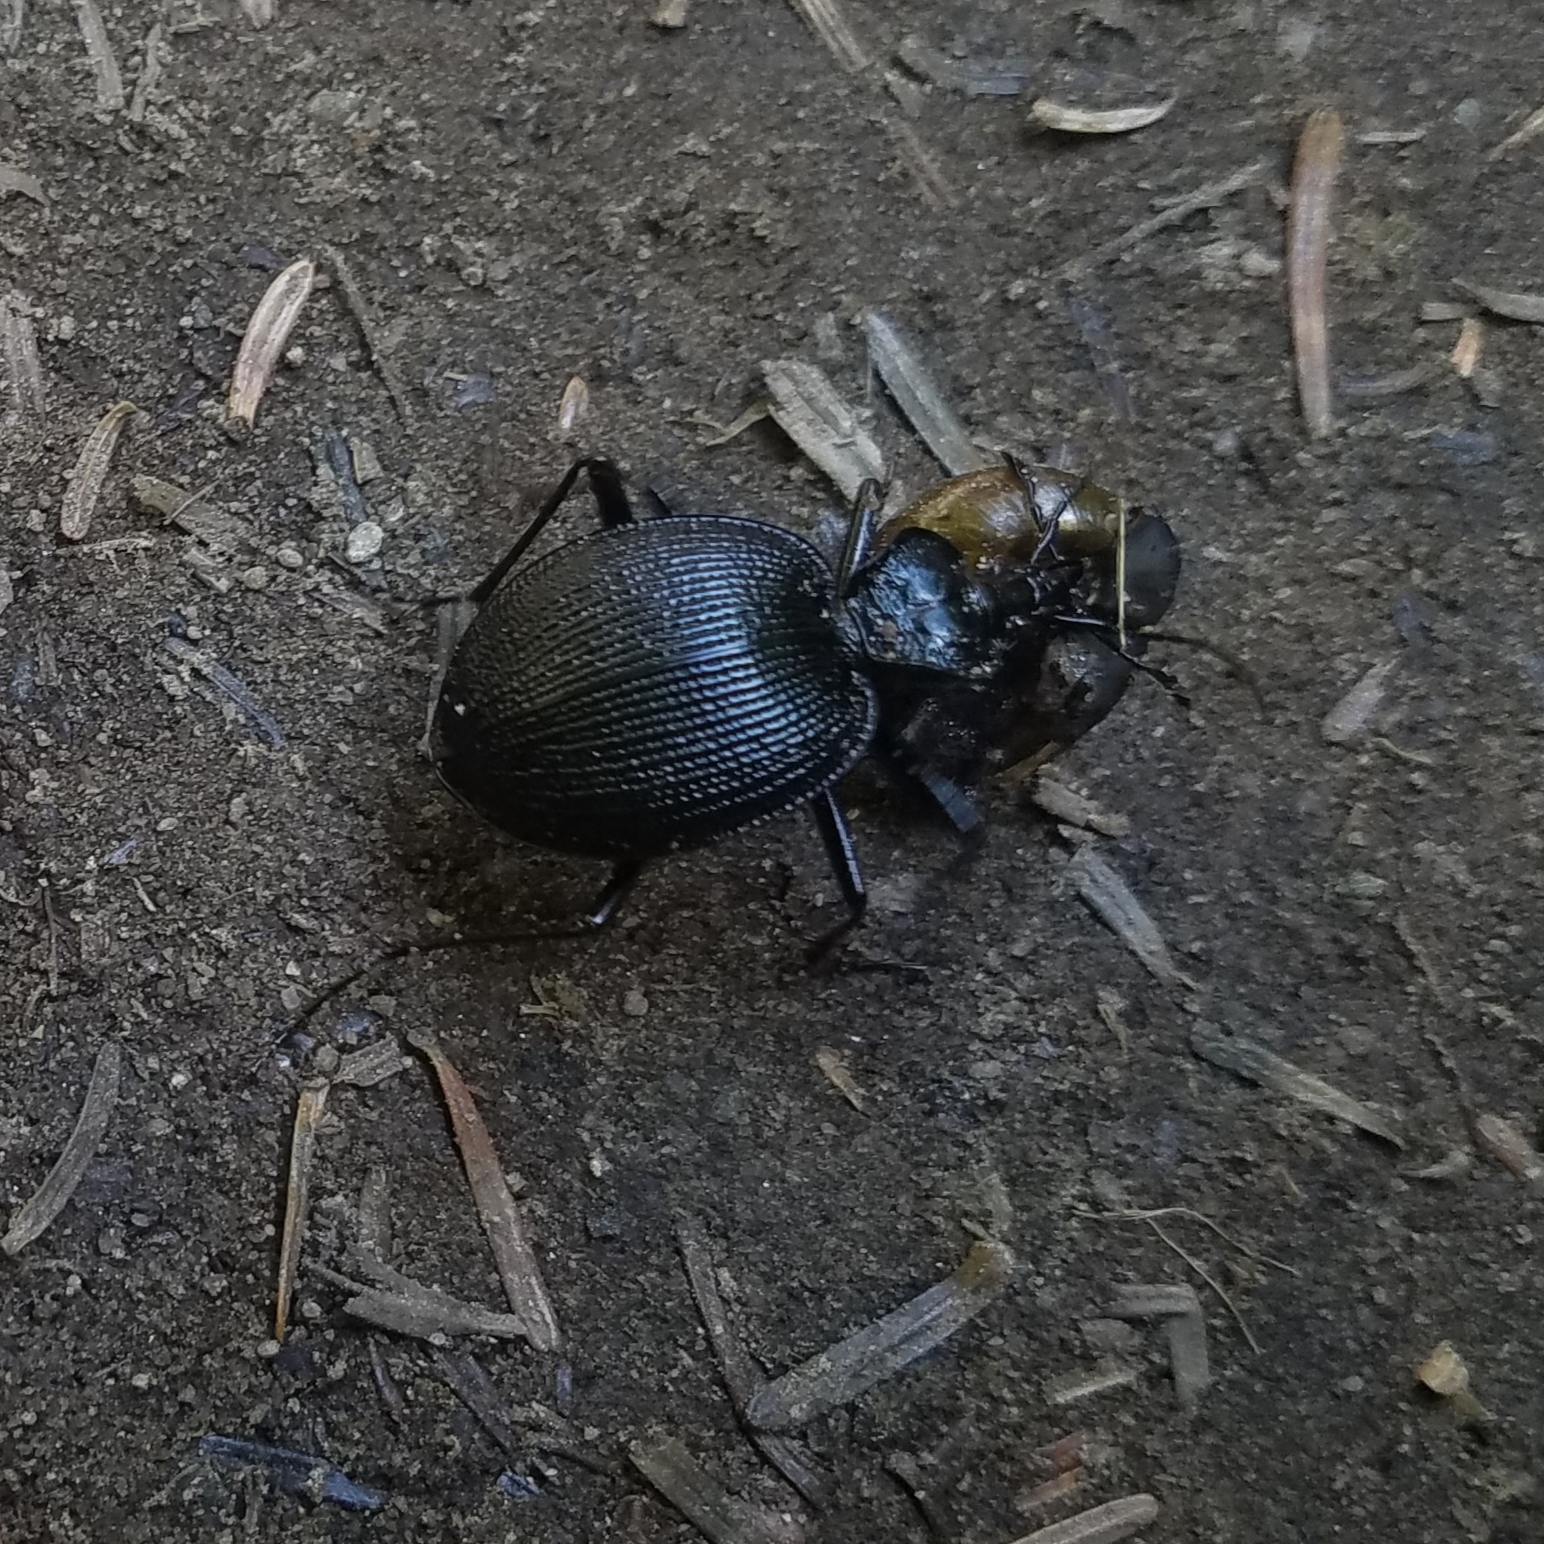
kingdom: Animalia
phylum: Arthropoda
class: Insecta
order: Coleoptera
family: Carabidae
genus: Scaphinotus
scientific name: Scaphinotus irregularis
